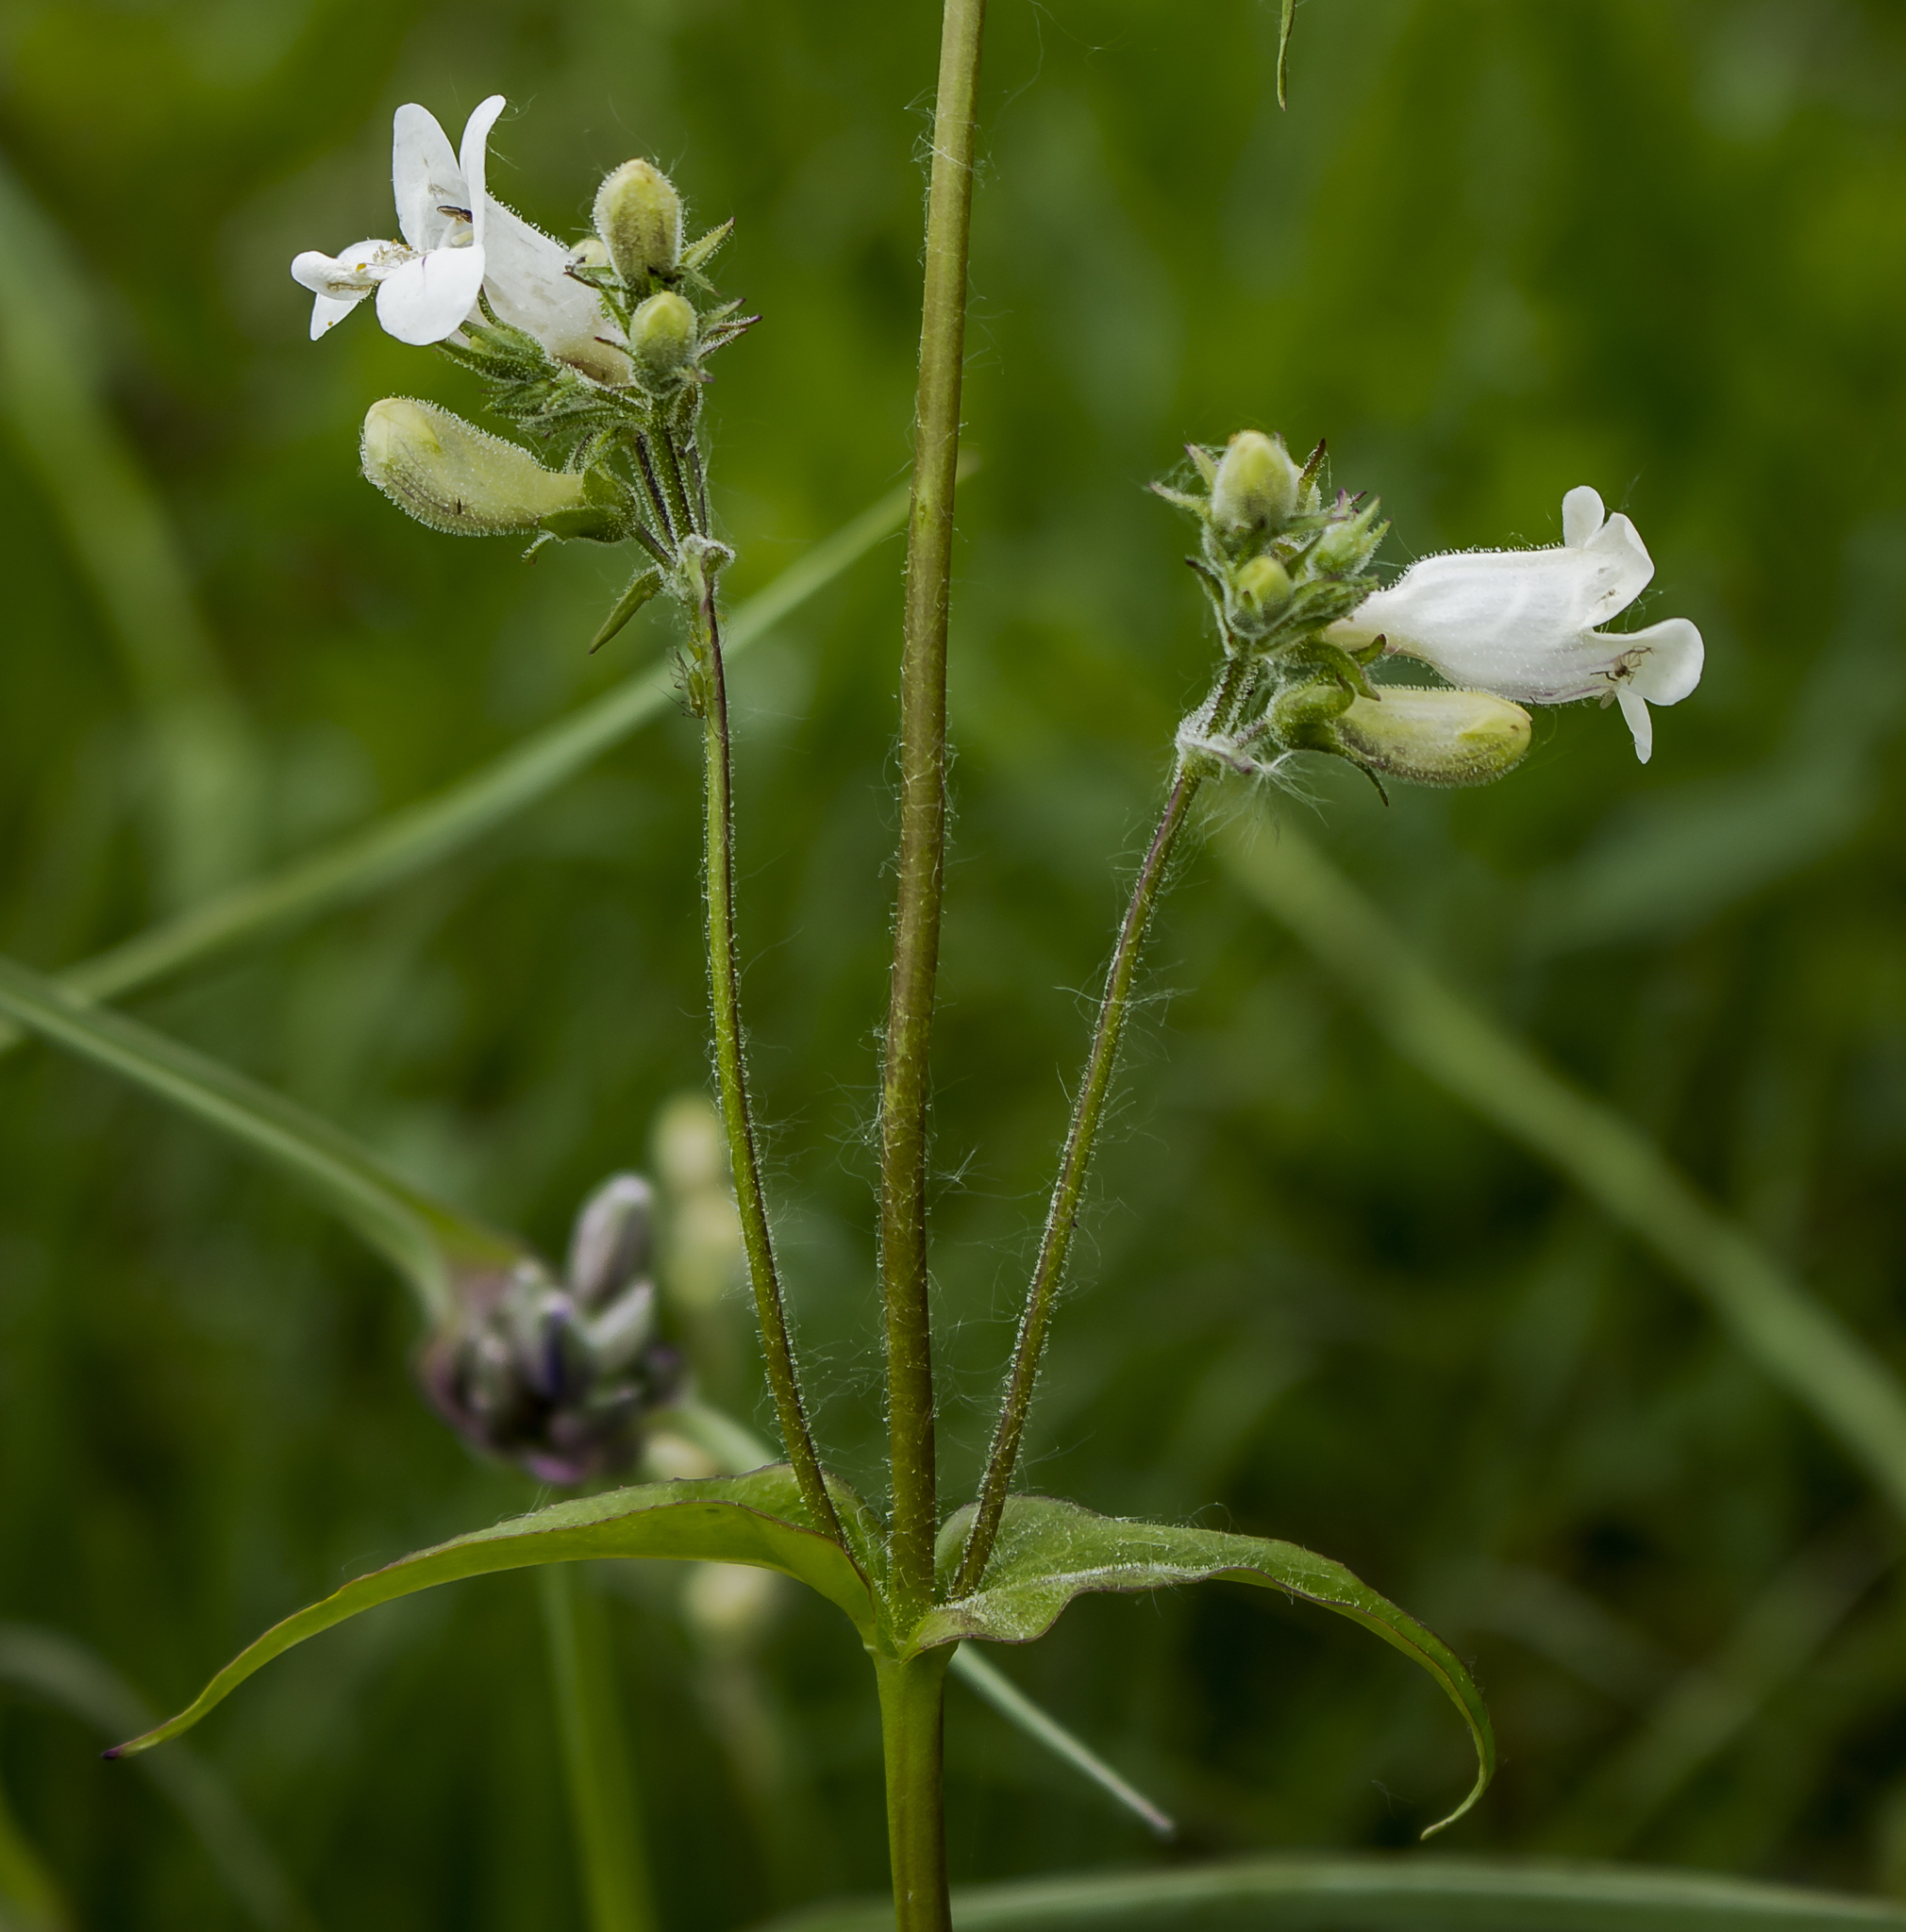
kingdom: Plantae
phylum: Tracheophyta
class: Magnoliopsida
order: Lamiales
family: Plantaginaceae
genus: Penstemon
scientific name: Penstemon digitalis
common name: Foxglove beardtongue
